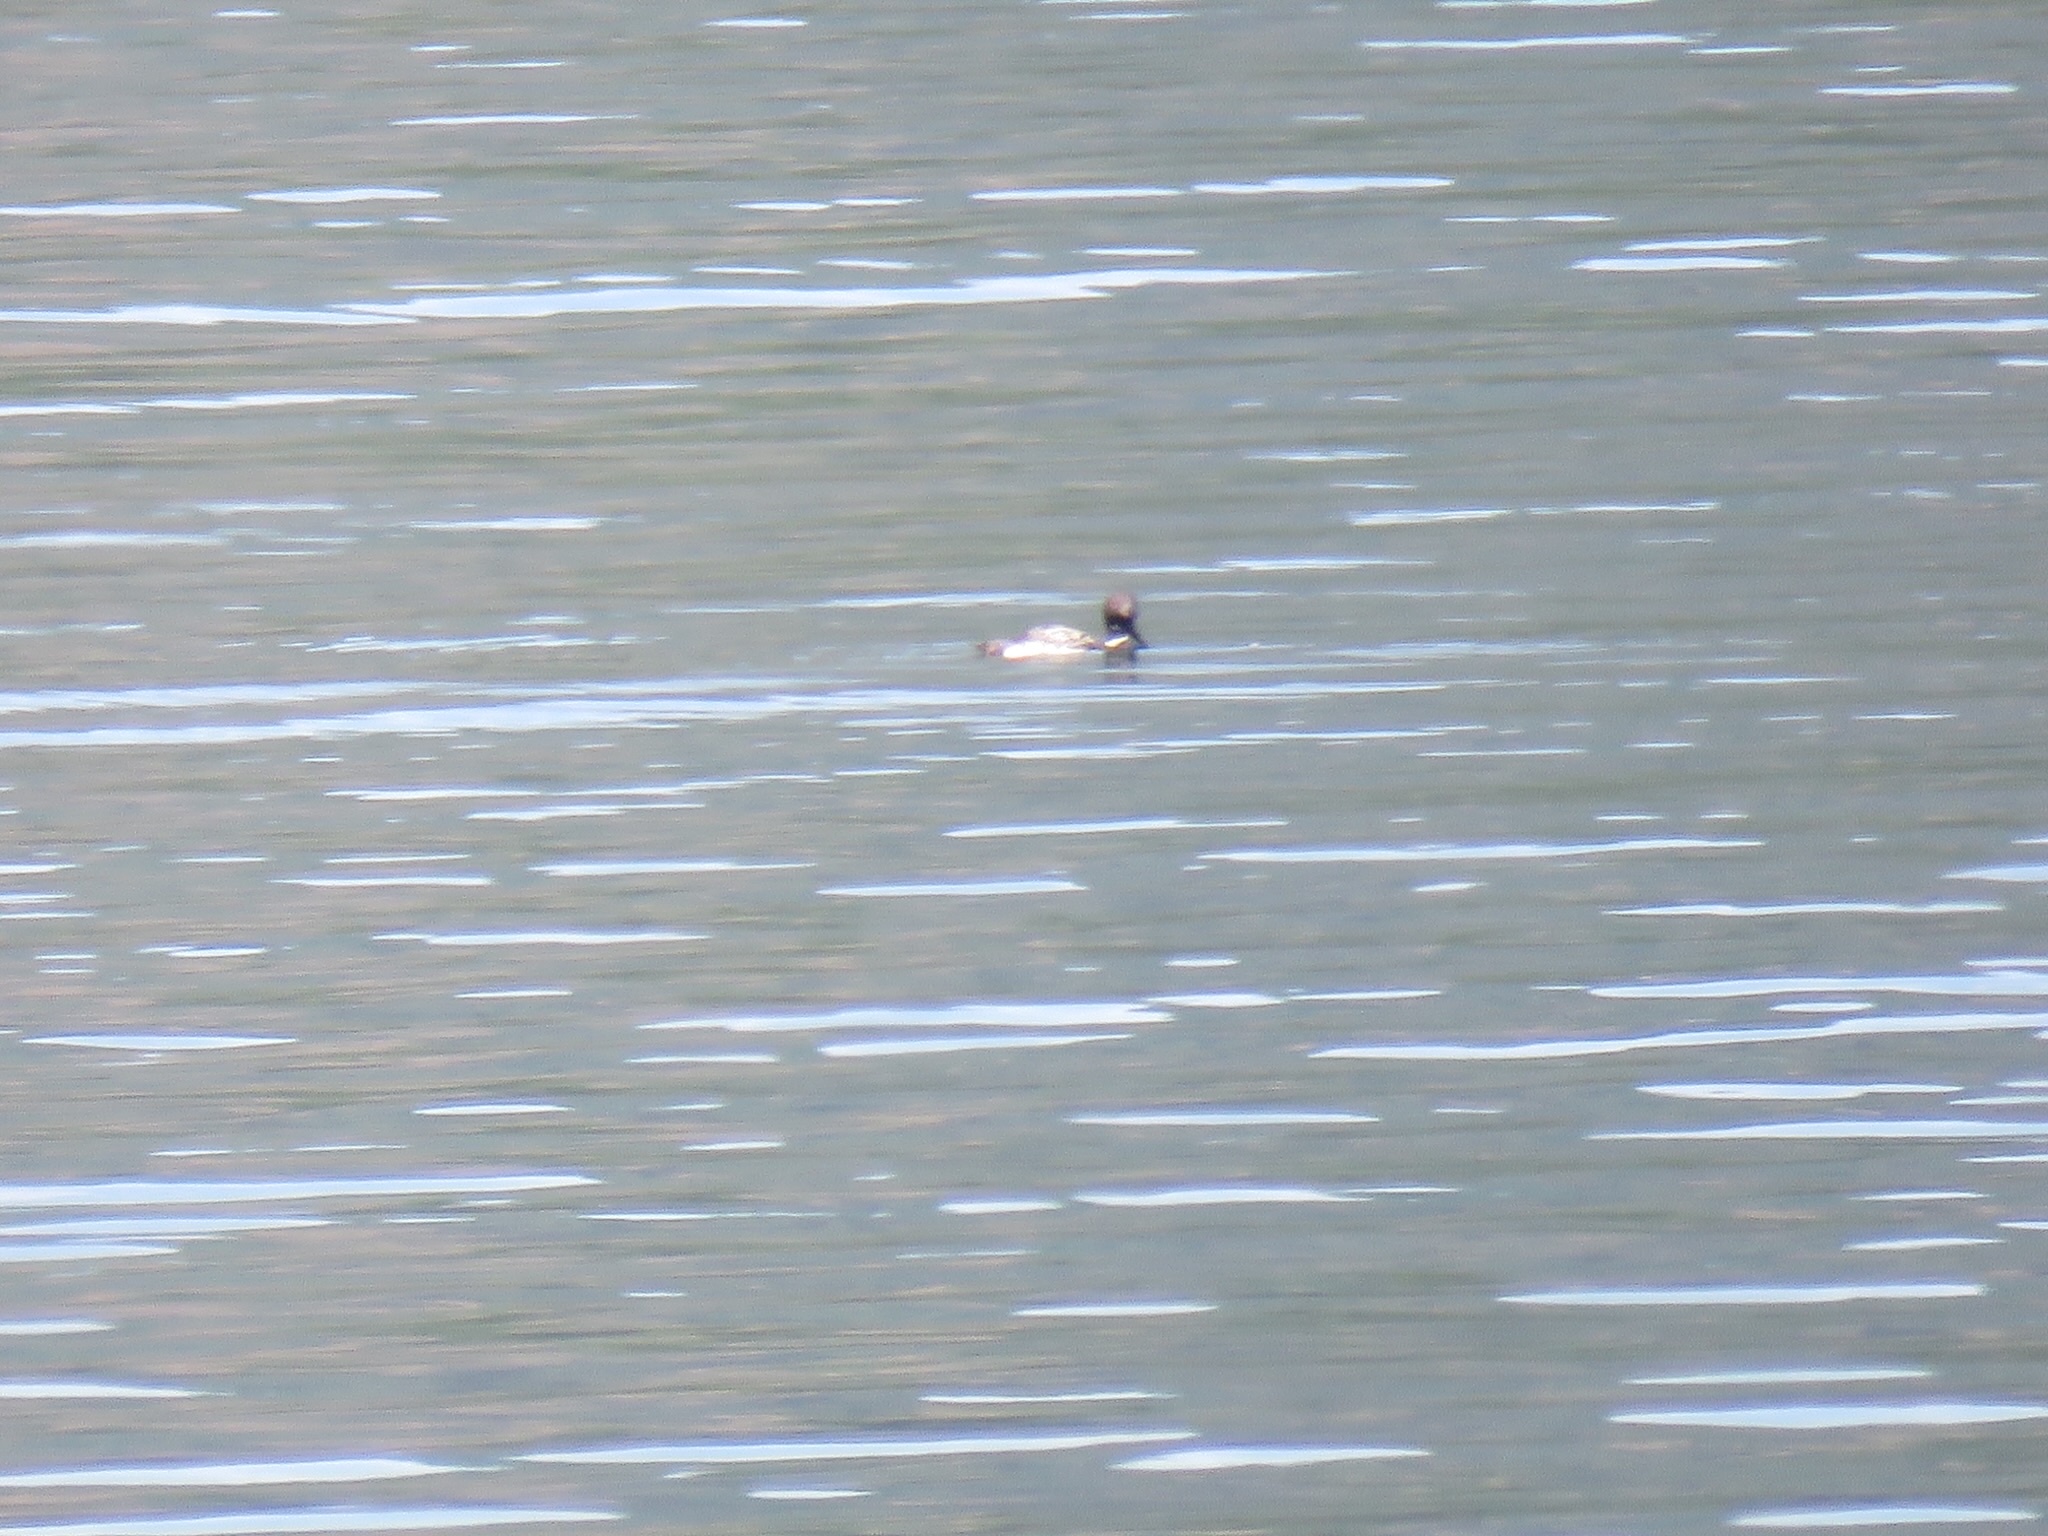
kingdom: Animalia
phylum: Chordata
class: Aves
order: Gaviiformes
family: Gaviidae
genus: Gavia
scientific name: Gavia immer
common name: Common loon
